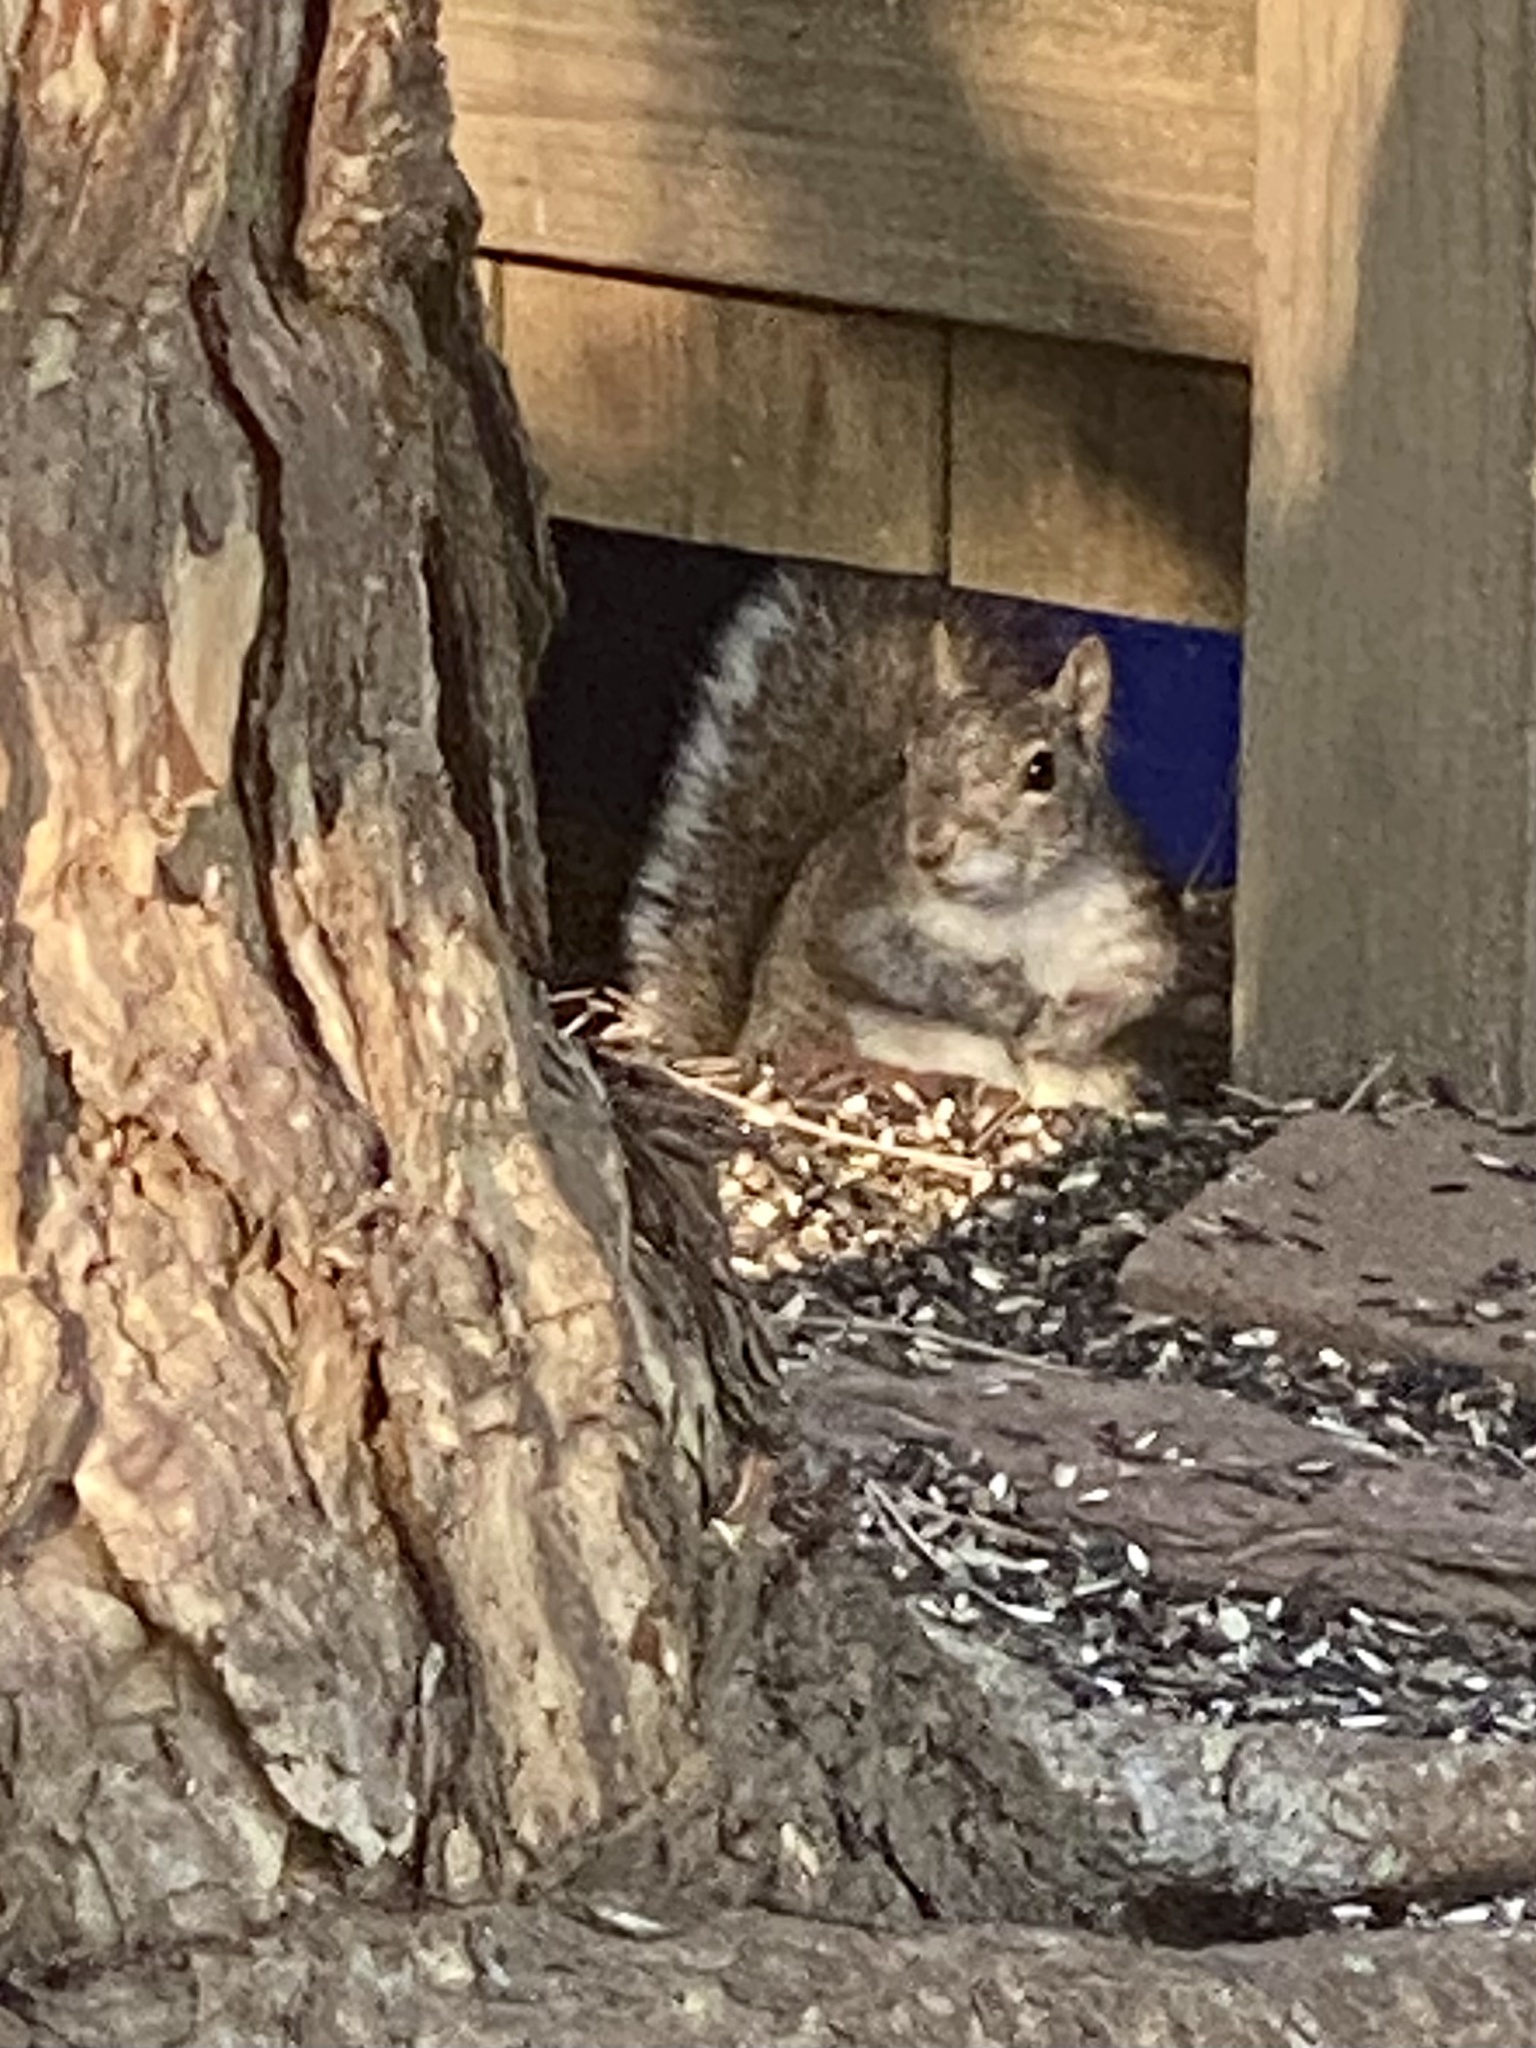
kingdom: Animalia
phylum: Chordata
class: Mammalia
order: Rodentia
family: Sciuridae
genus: Sciurus
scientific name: Sciurus carolinensis
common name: Eastern gray squirrel
